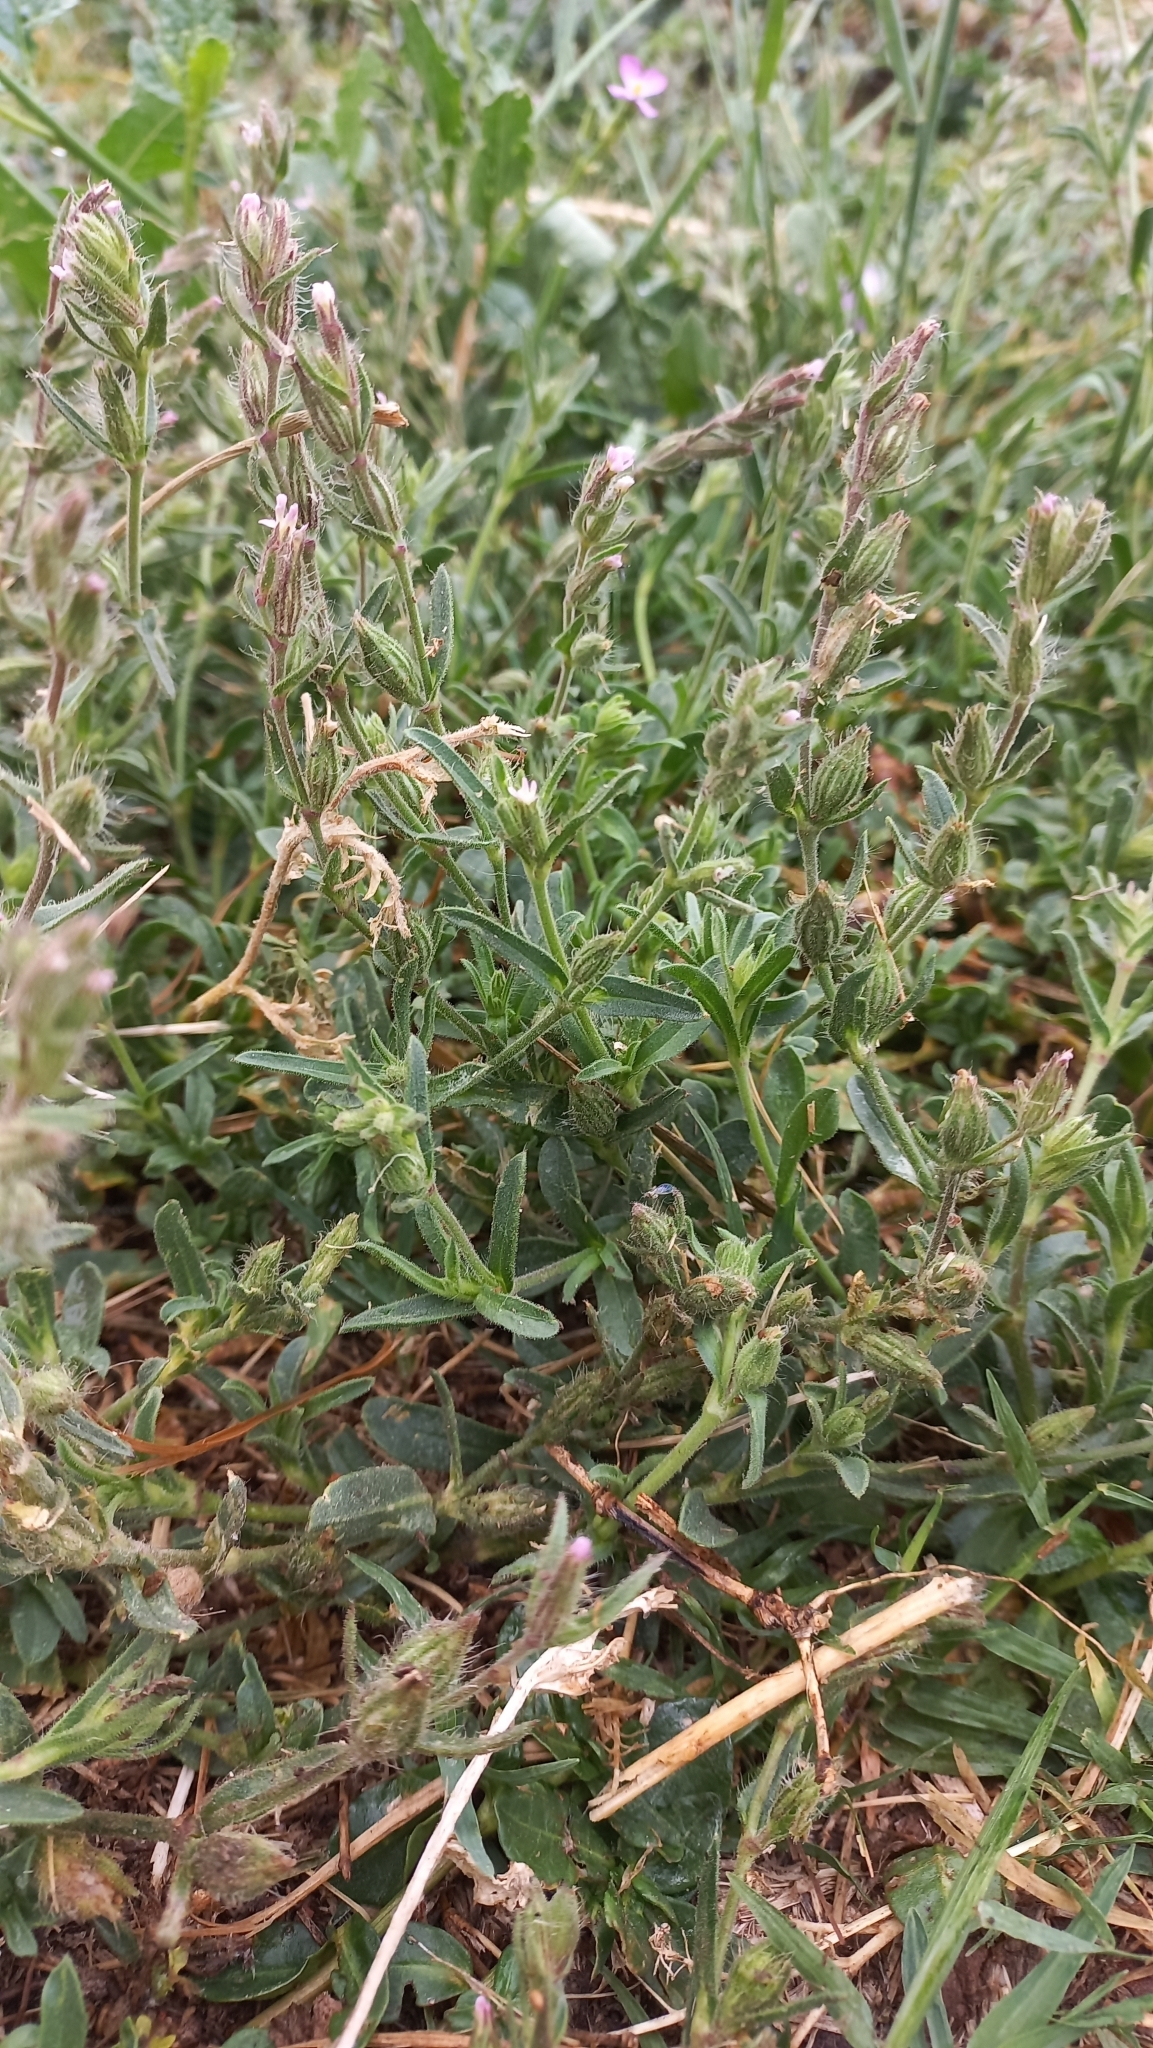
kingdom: Plantae
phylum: Tracheophyta
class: Magnoliopsida
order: Caryophyllales
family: Caryophyllaceae
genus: Silene
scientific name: Silene gallica
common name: Small-flowered catchfly
